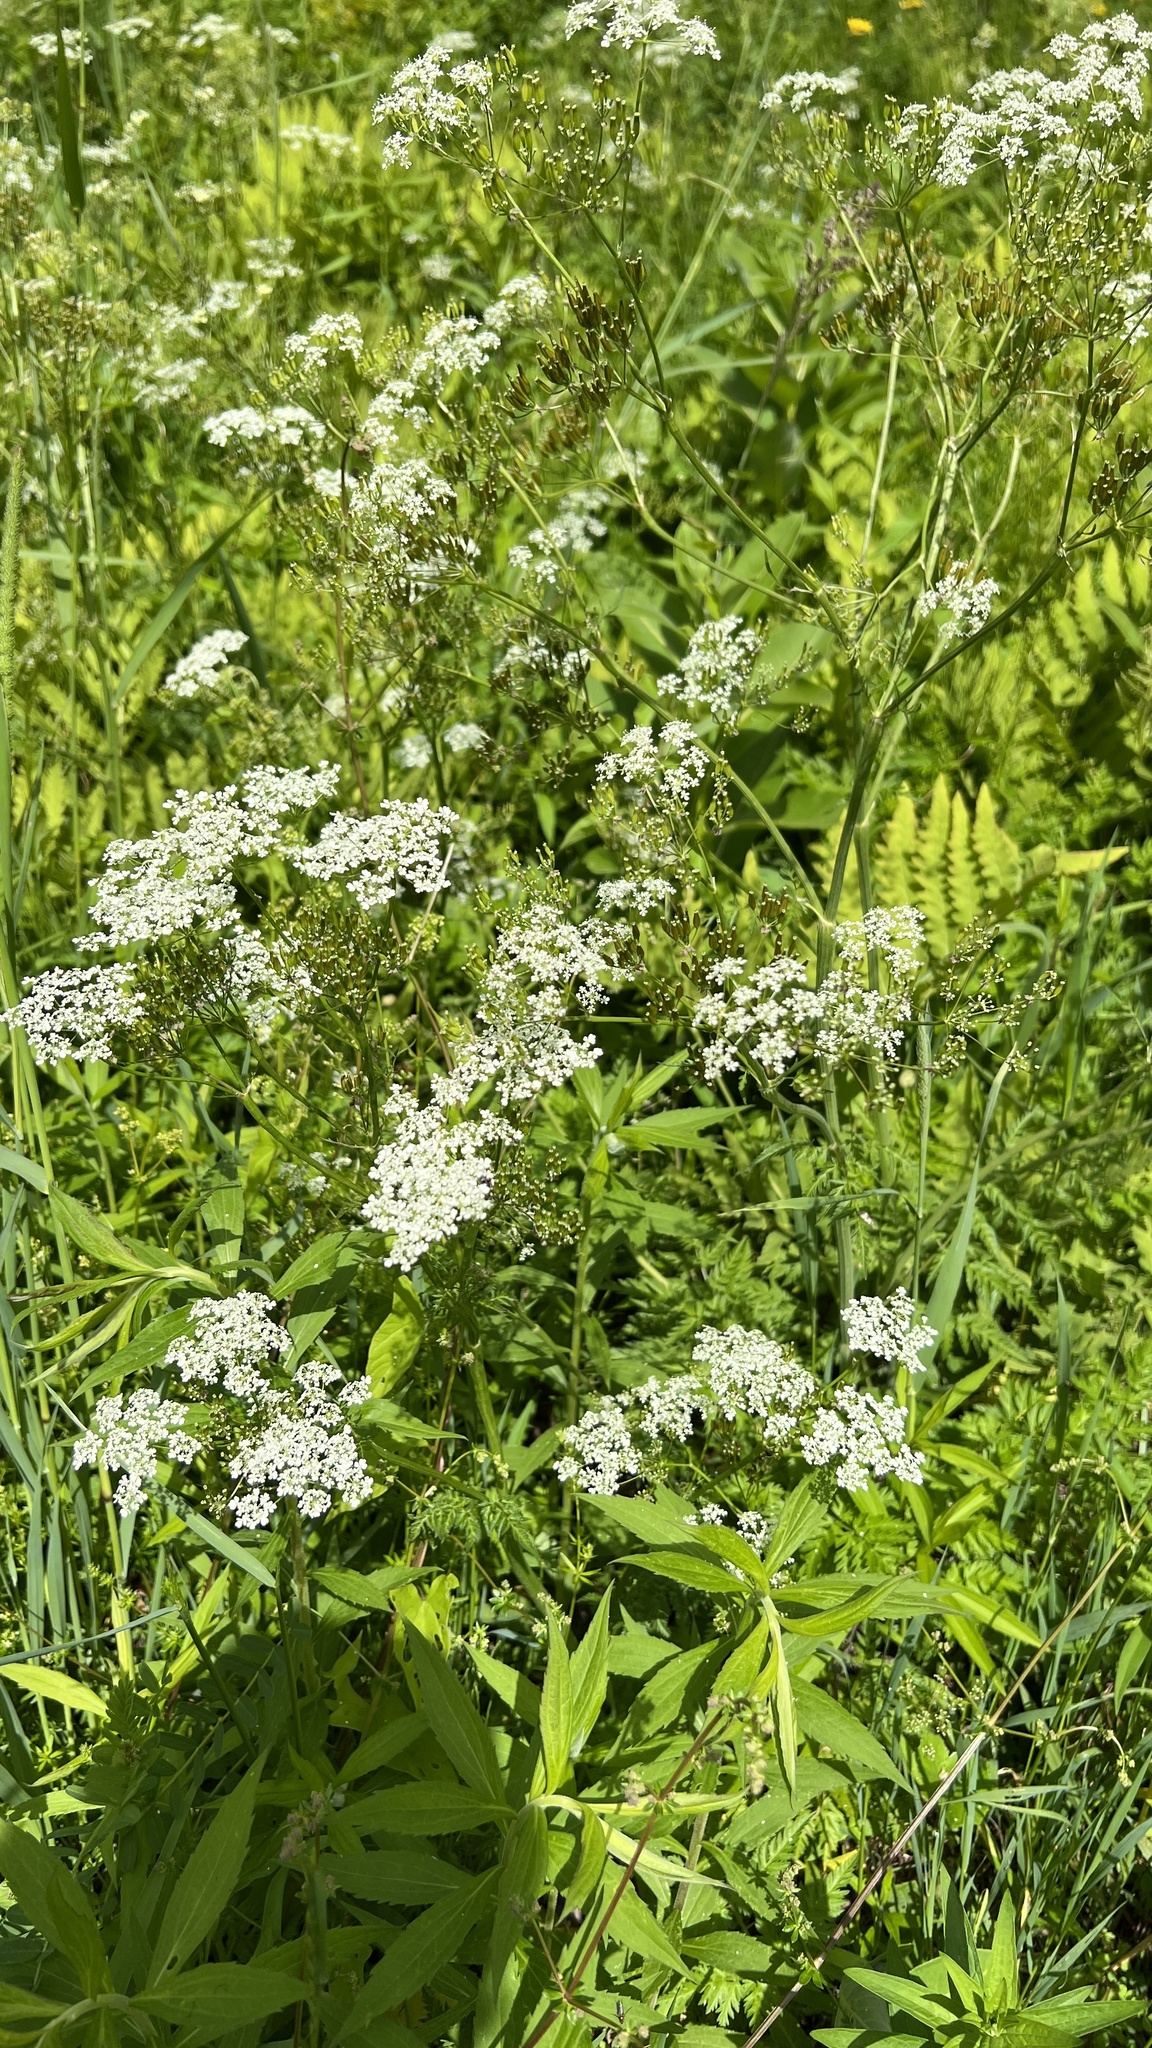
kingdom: Plantae
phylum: Tracheophyta
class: Magnoliopsida
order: Apiales
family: Apiaceae
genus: Anthriscus
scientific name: Anthriscus sylvestris
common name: Cow parsley
